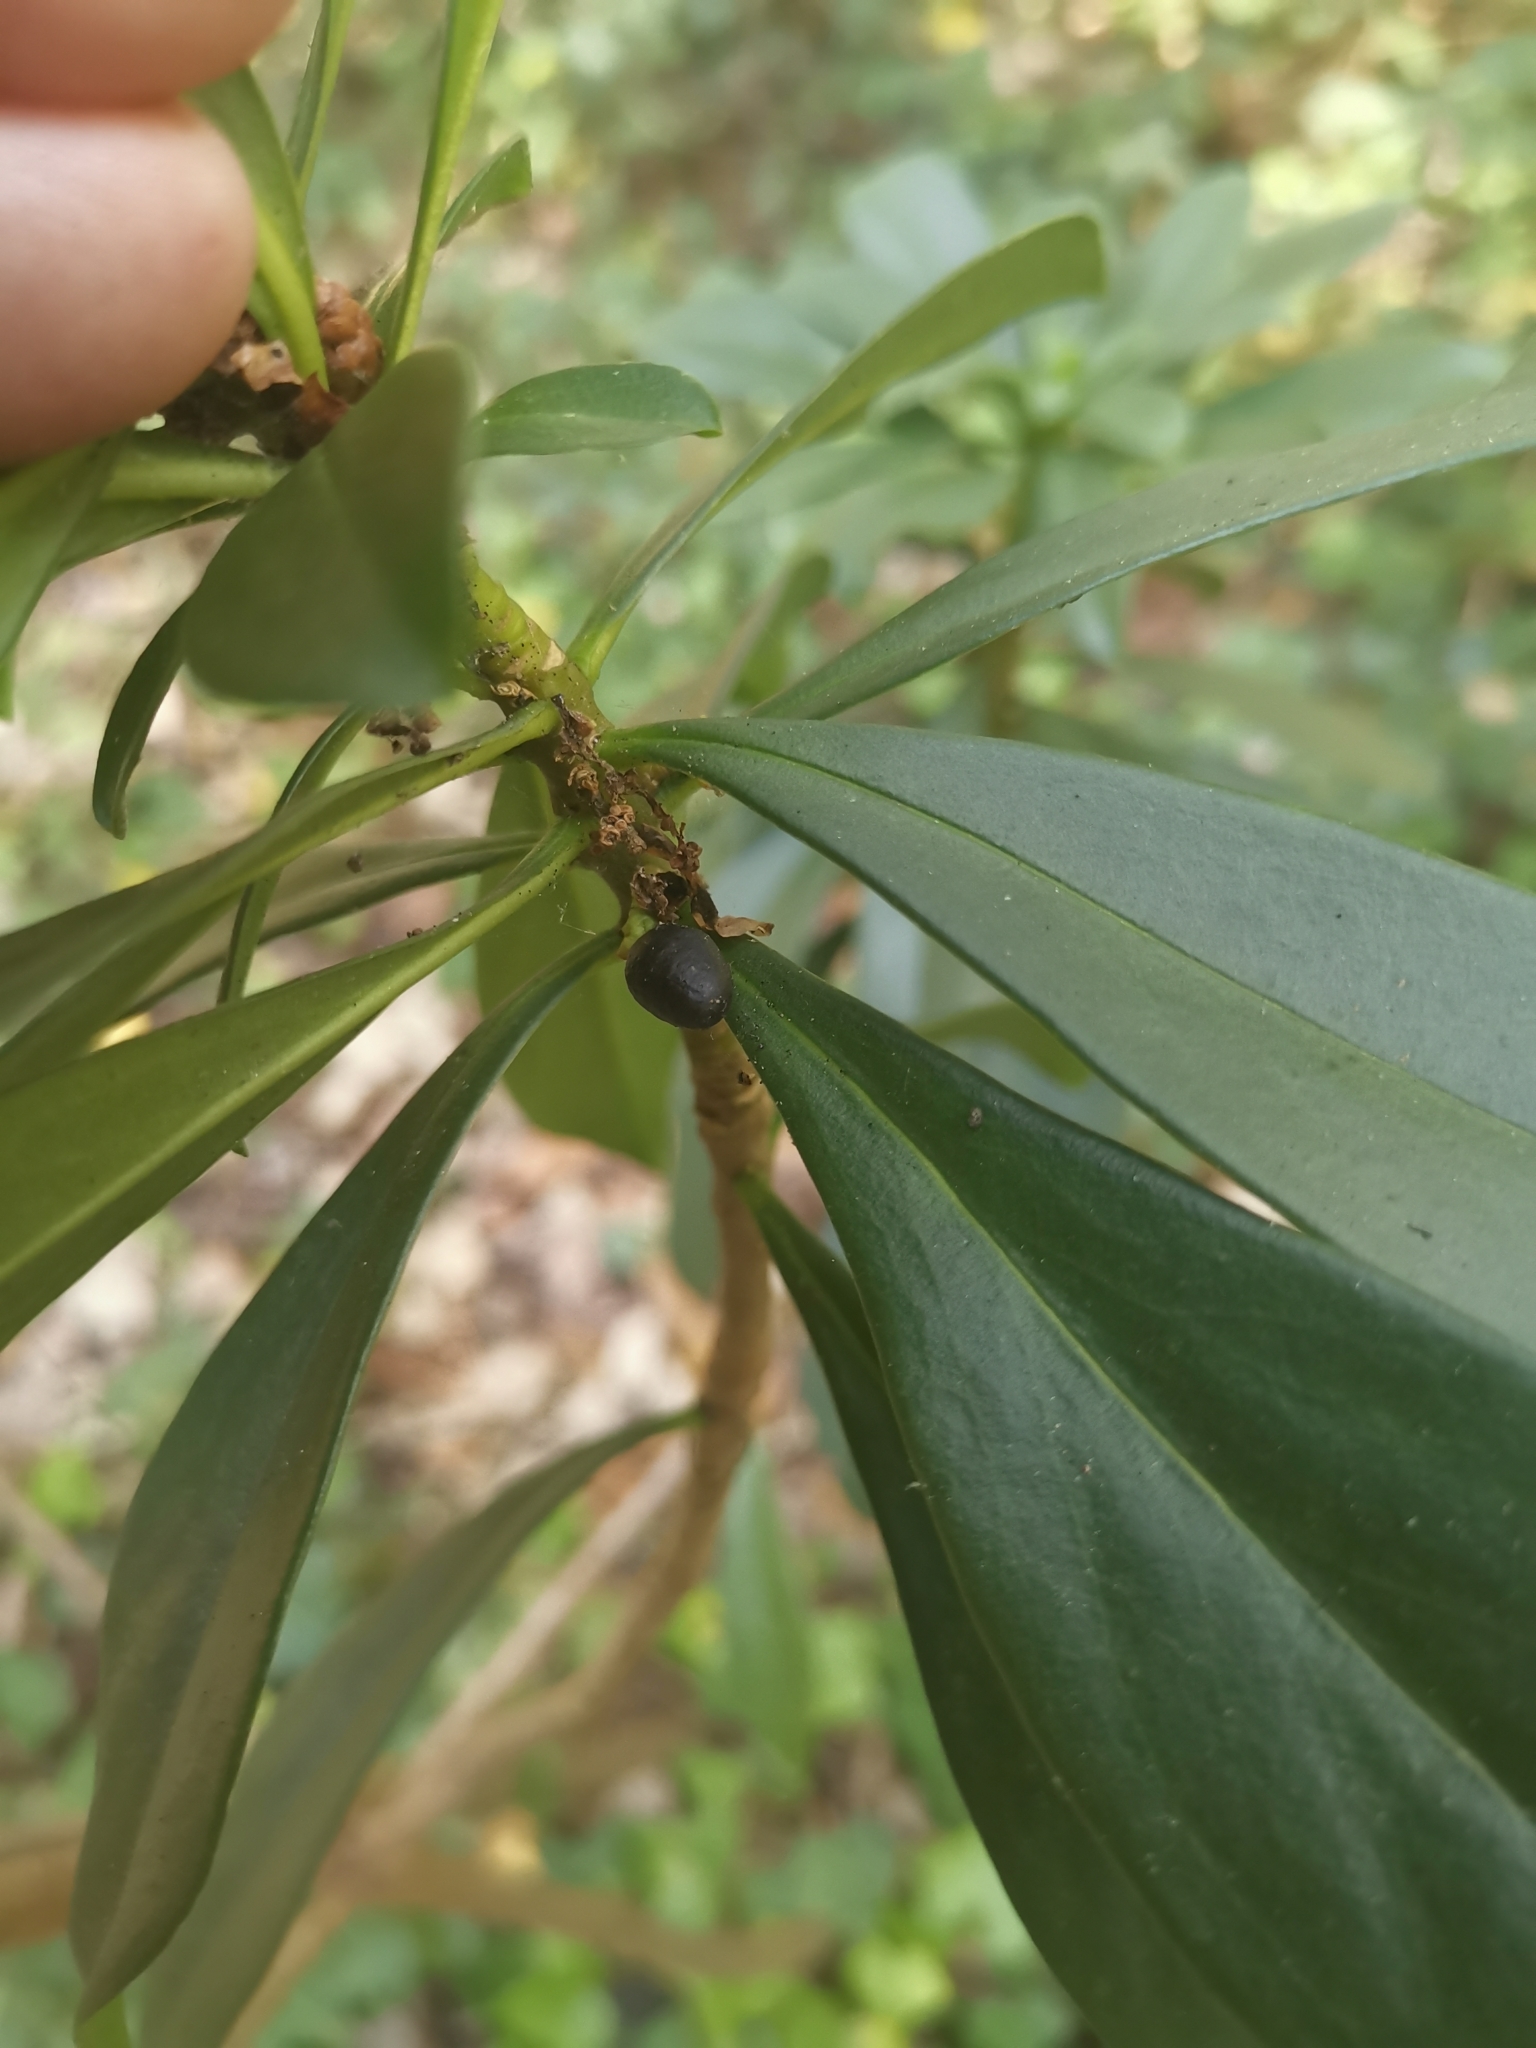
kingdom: Plantae
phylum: Tracheophyta
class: Magnoliopsida
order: Malvales
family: Thymelaeaceae
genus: Daphne
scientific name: Daphne laureola
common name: Spurge-laurel
